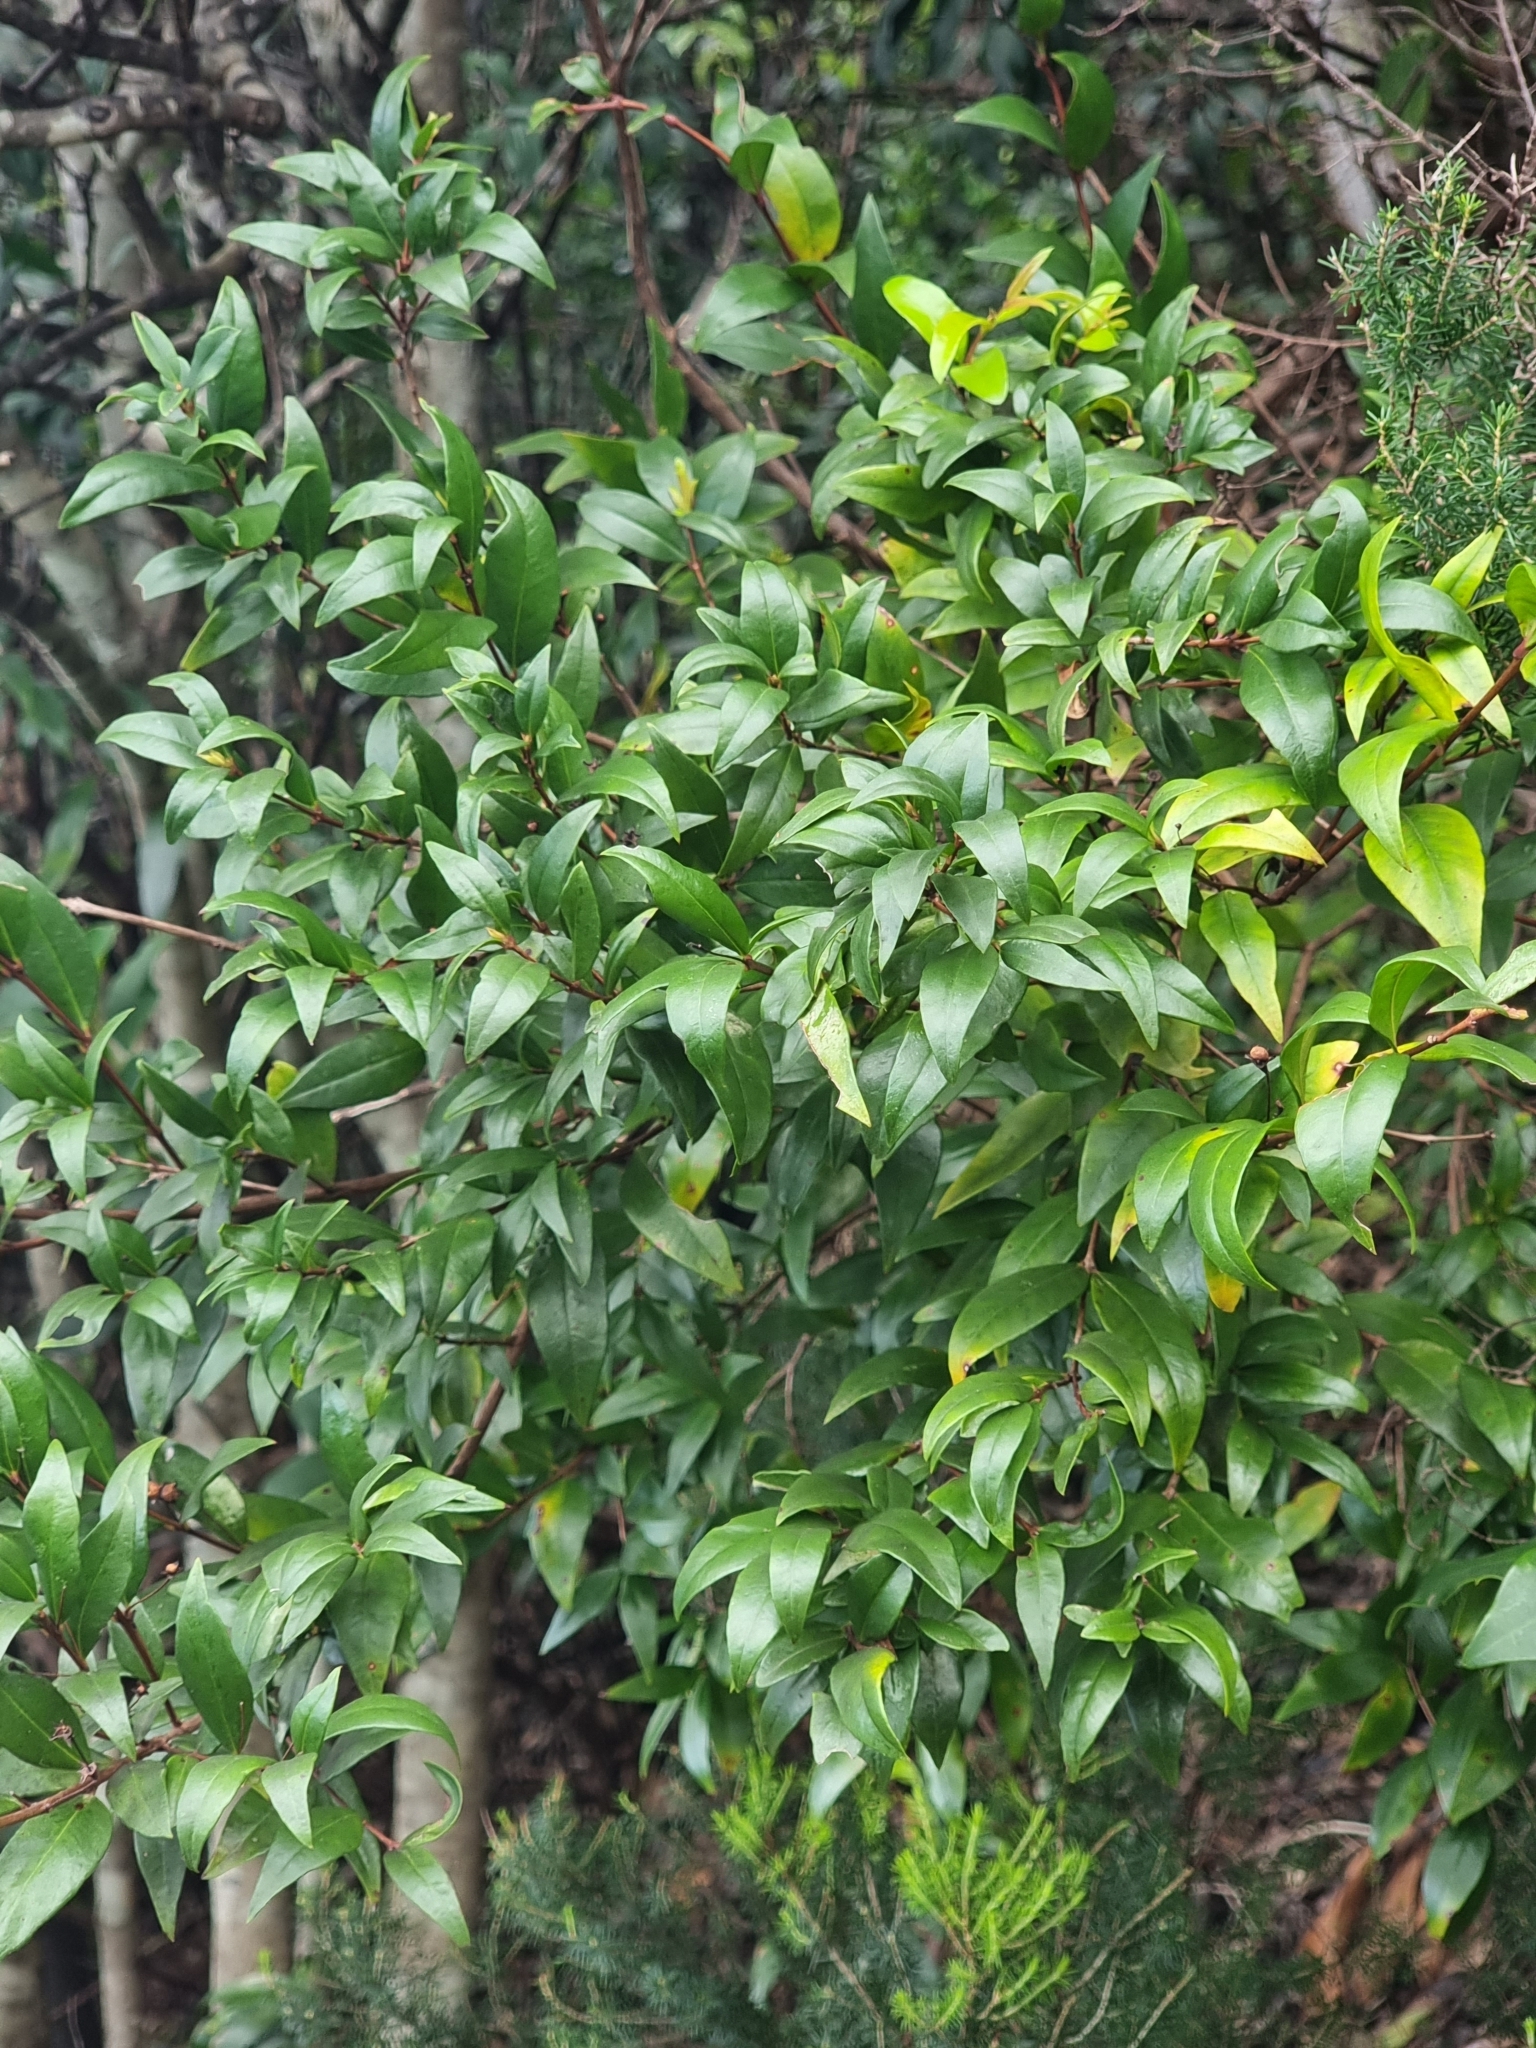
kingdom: Plantae
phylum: Tracheophyta
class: Magnoliopsida
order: Myrtales
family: Myrtaceae
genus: Myrtus
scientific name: Myrtus communis
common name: Myrtle
